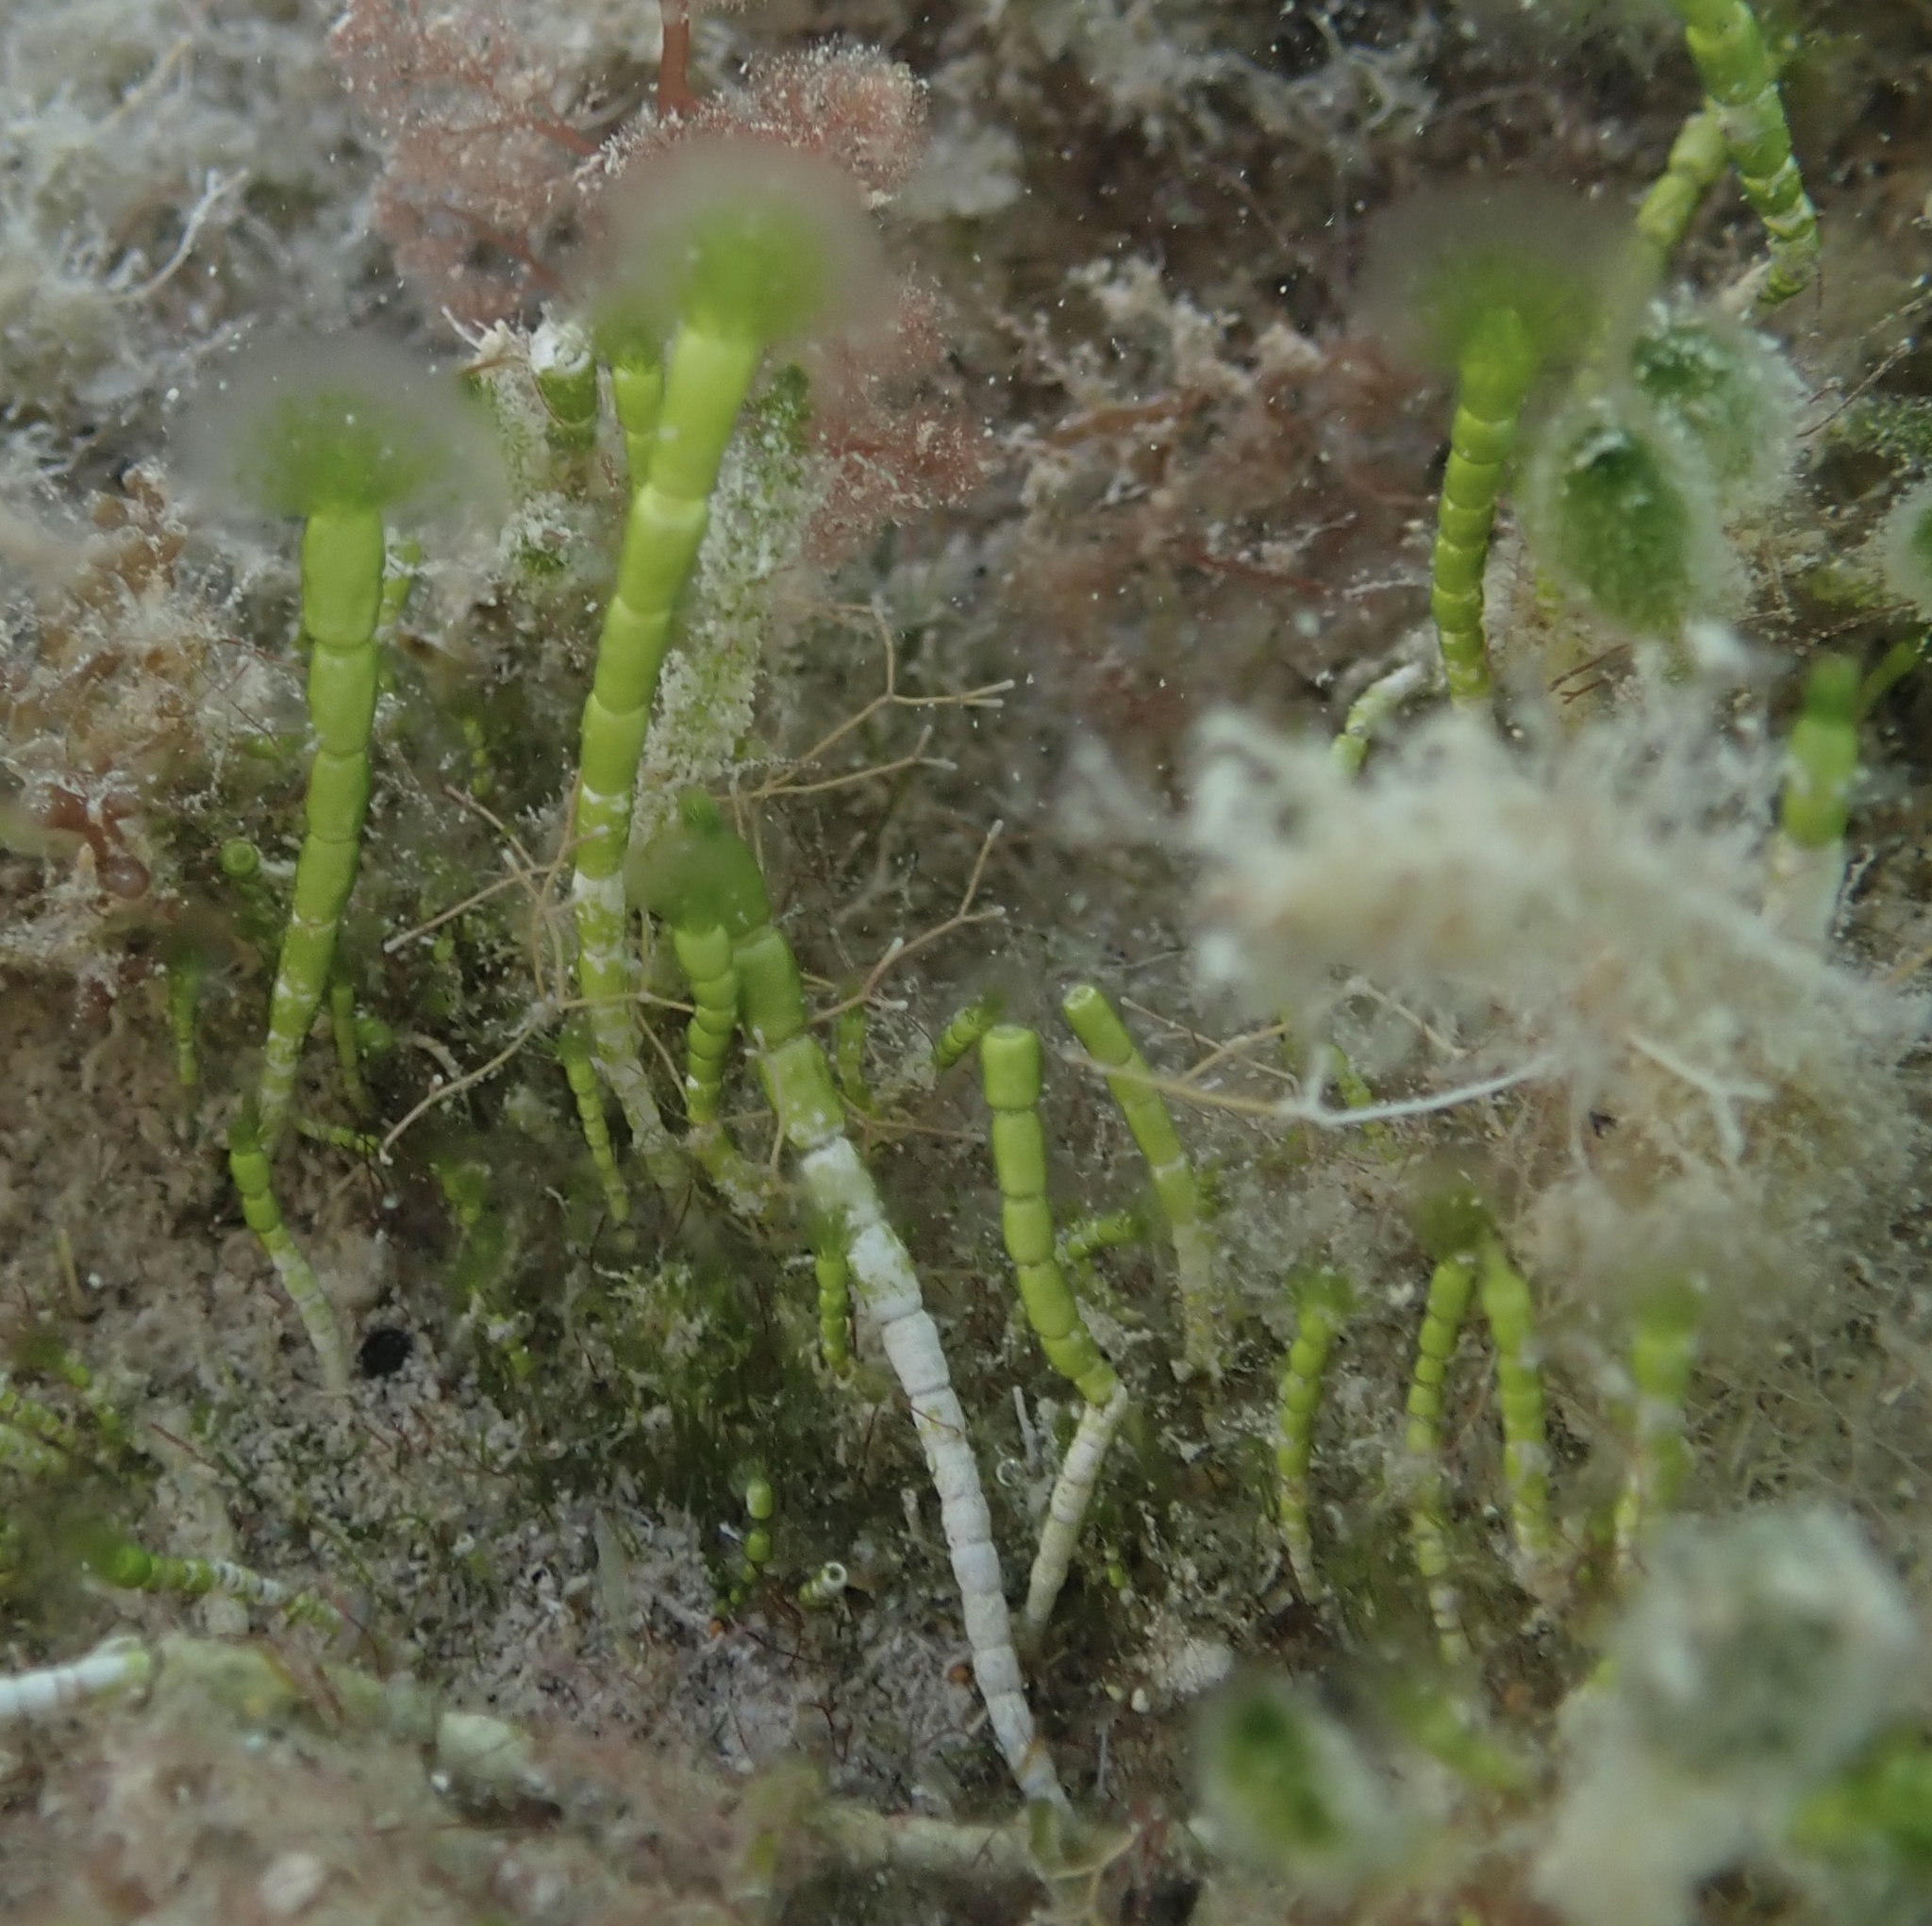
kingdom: Plantae
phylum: Chlorophyta
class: Ulvophyceae
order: Dasycladales
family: Dasycladaceae
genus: Cymopolia
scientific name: Cymopolia barbata
